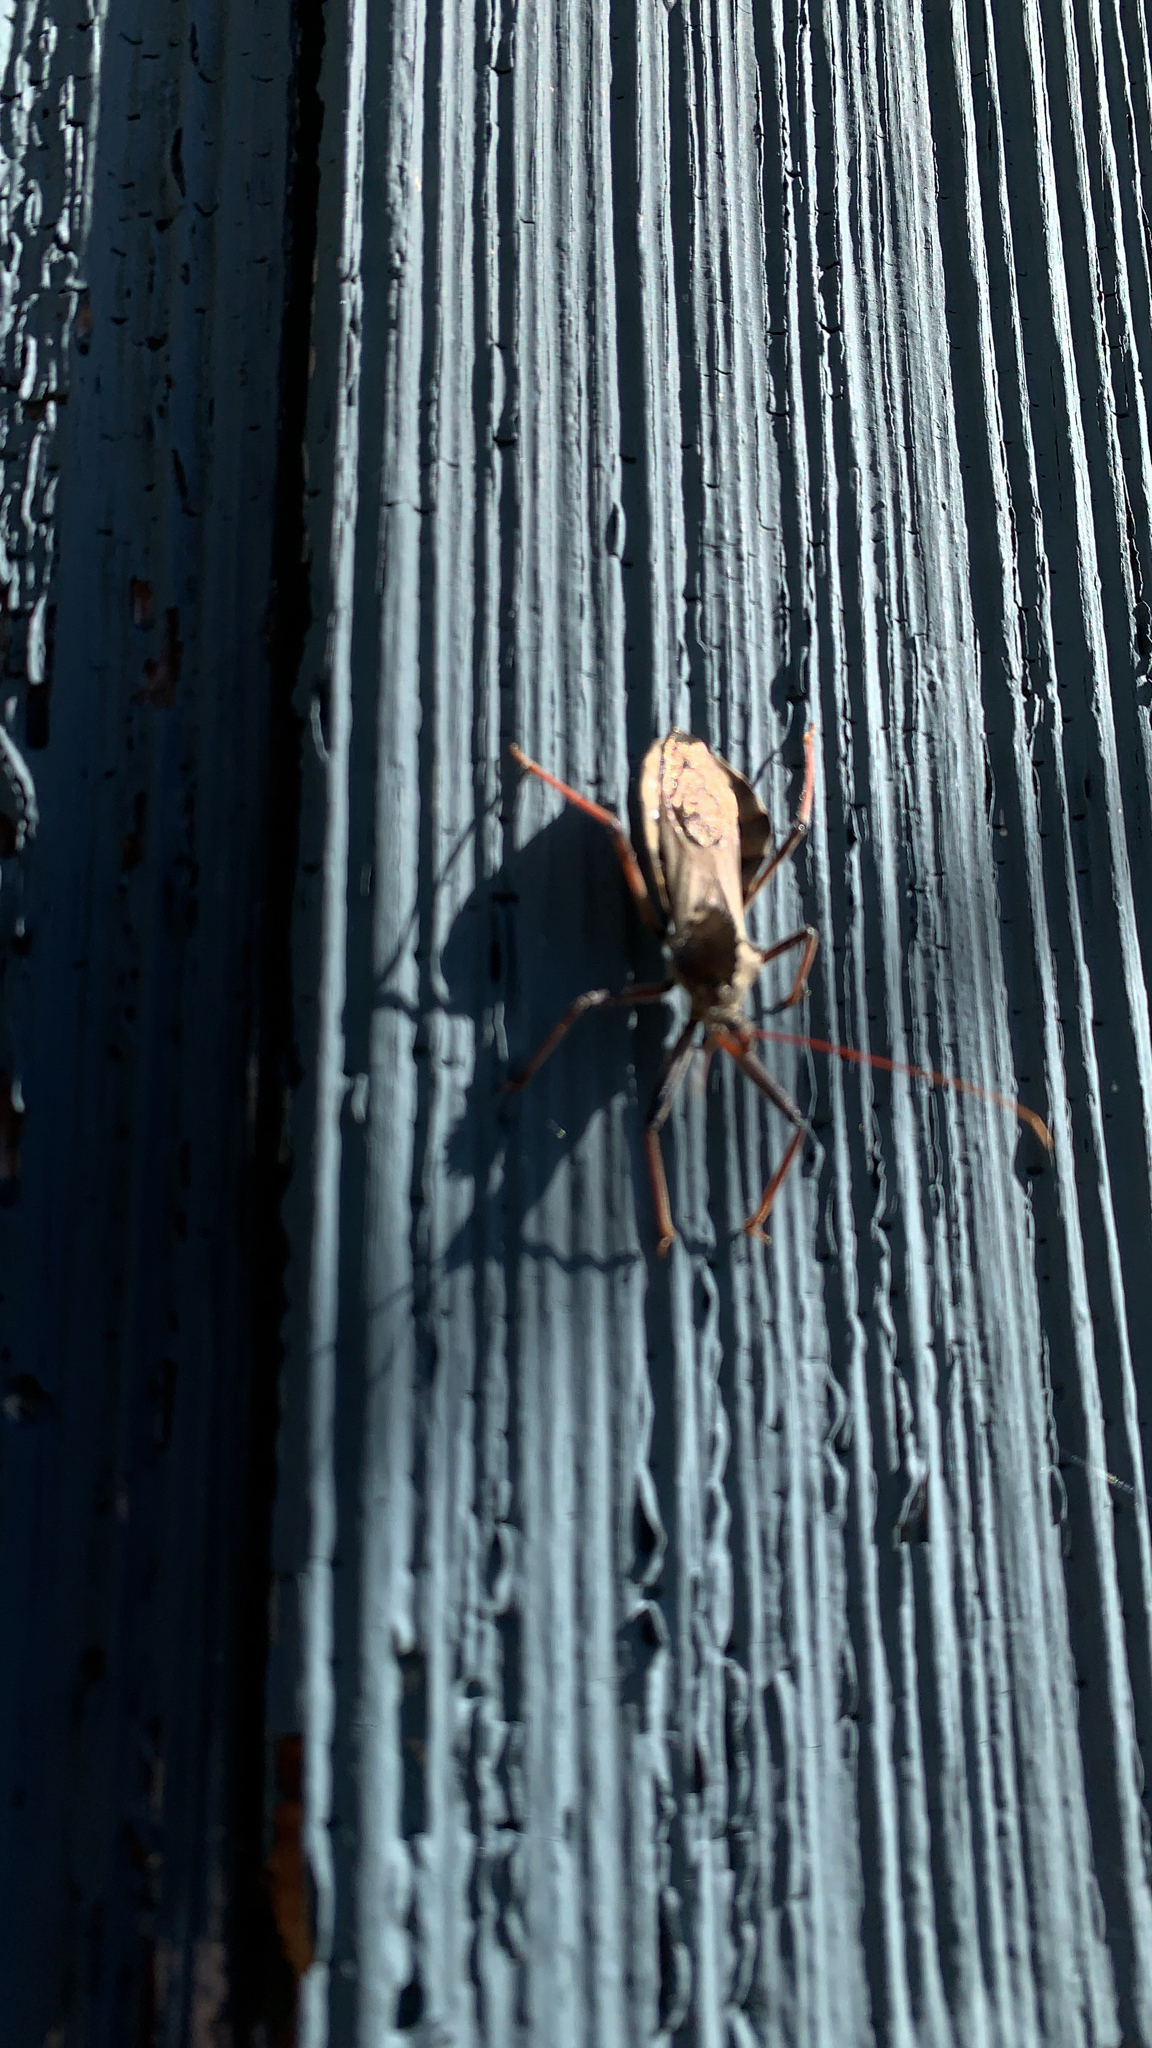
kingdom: Animalia
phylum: Arthropoda
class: Insecta
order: Hemiptera
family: Reduviidae
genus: Arilus
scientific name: Arilus cristatus
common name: North american wheel bug
